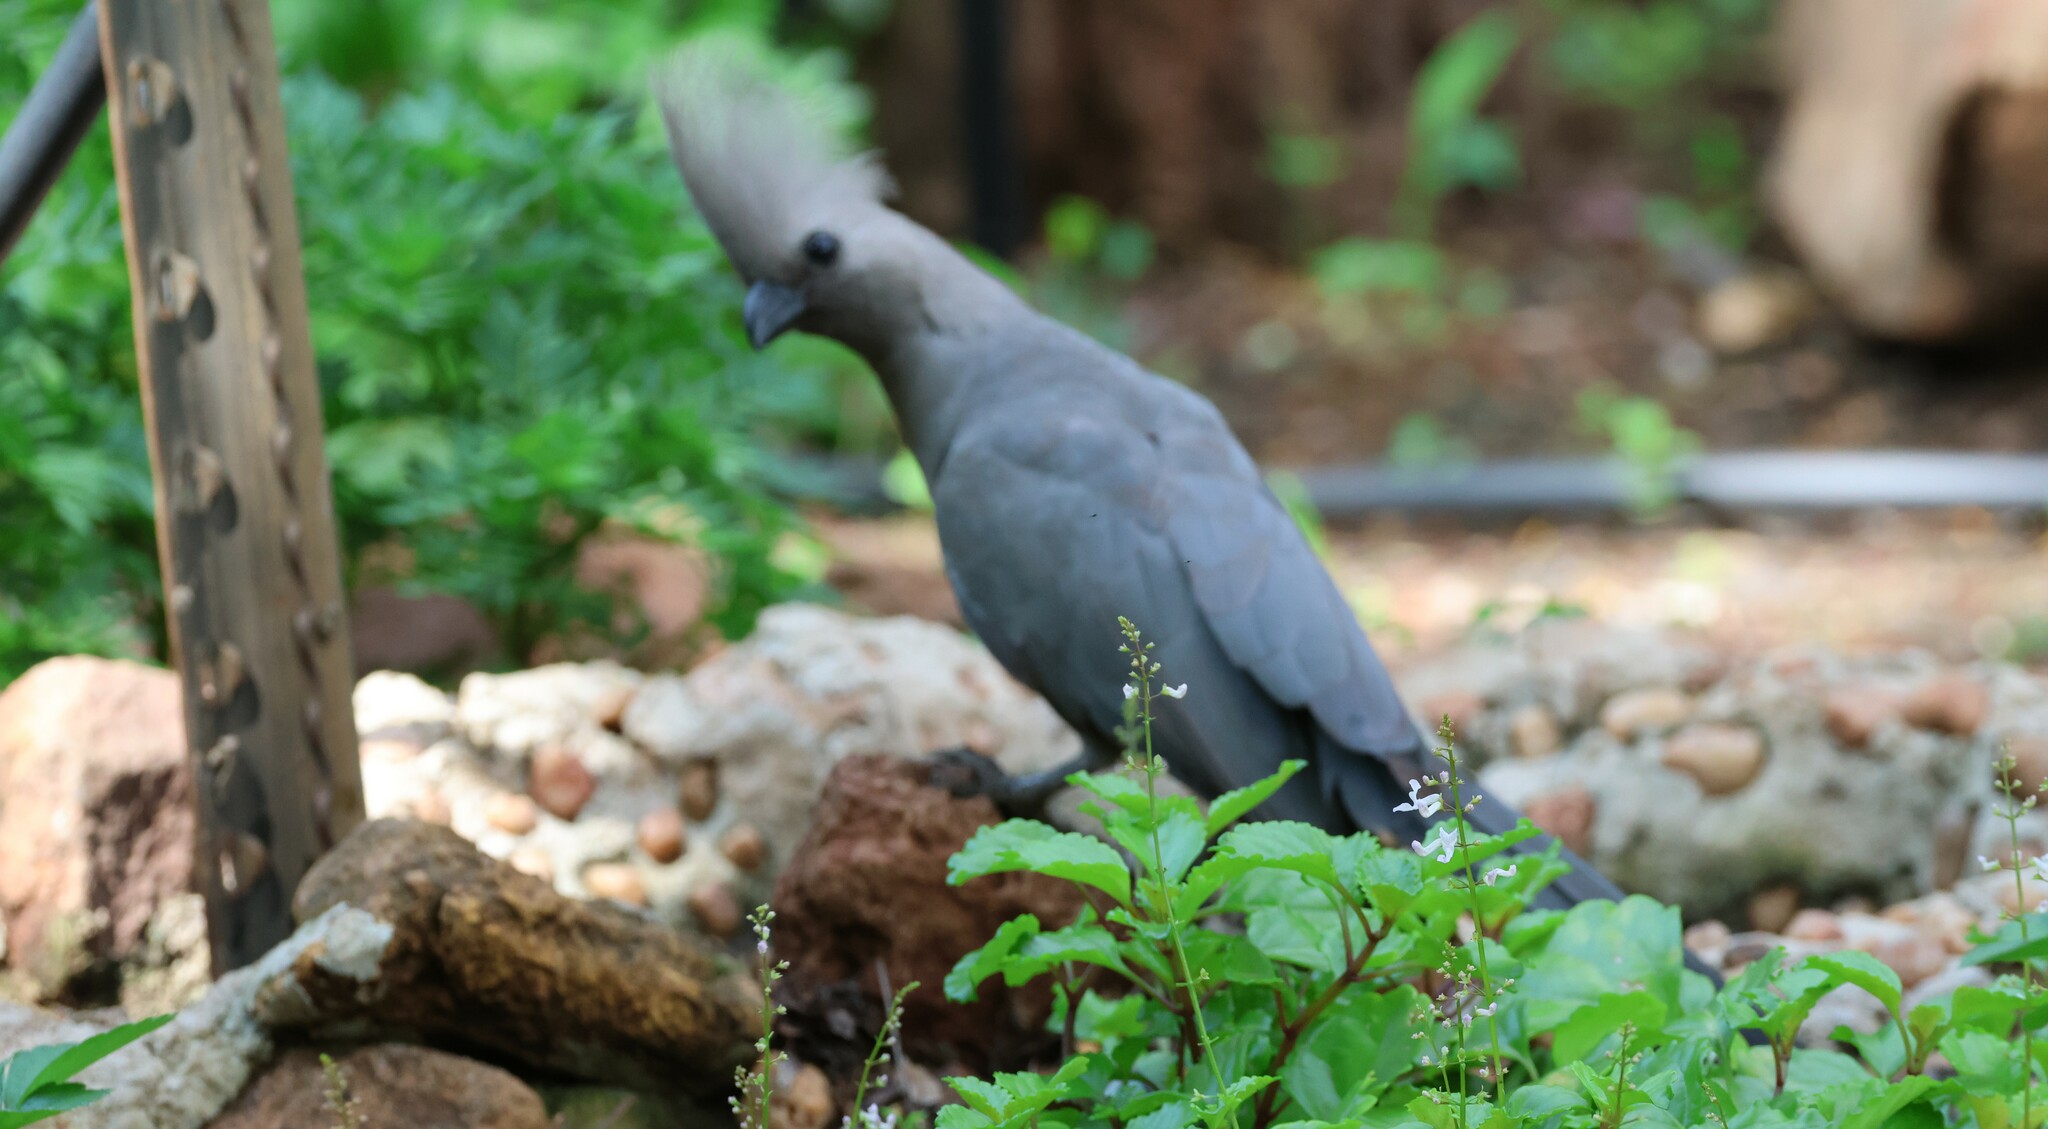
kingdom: Animalia
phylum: Chordata
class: Aves
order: Musophagiformes
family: Musophagidae
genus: Corythaixoides
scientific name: Corythaixoides concolor
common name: Grey go-away-bird
